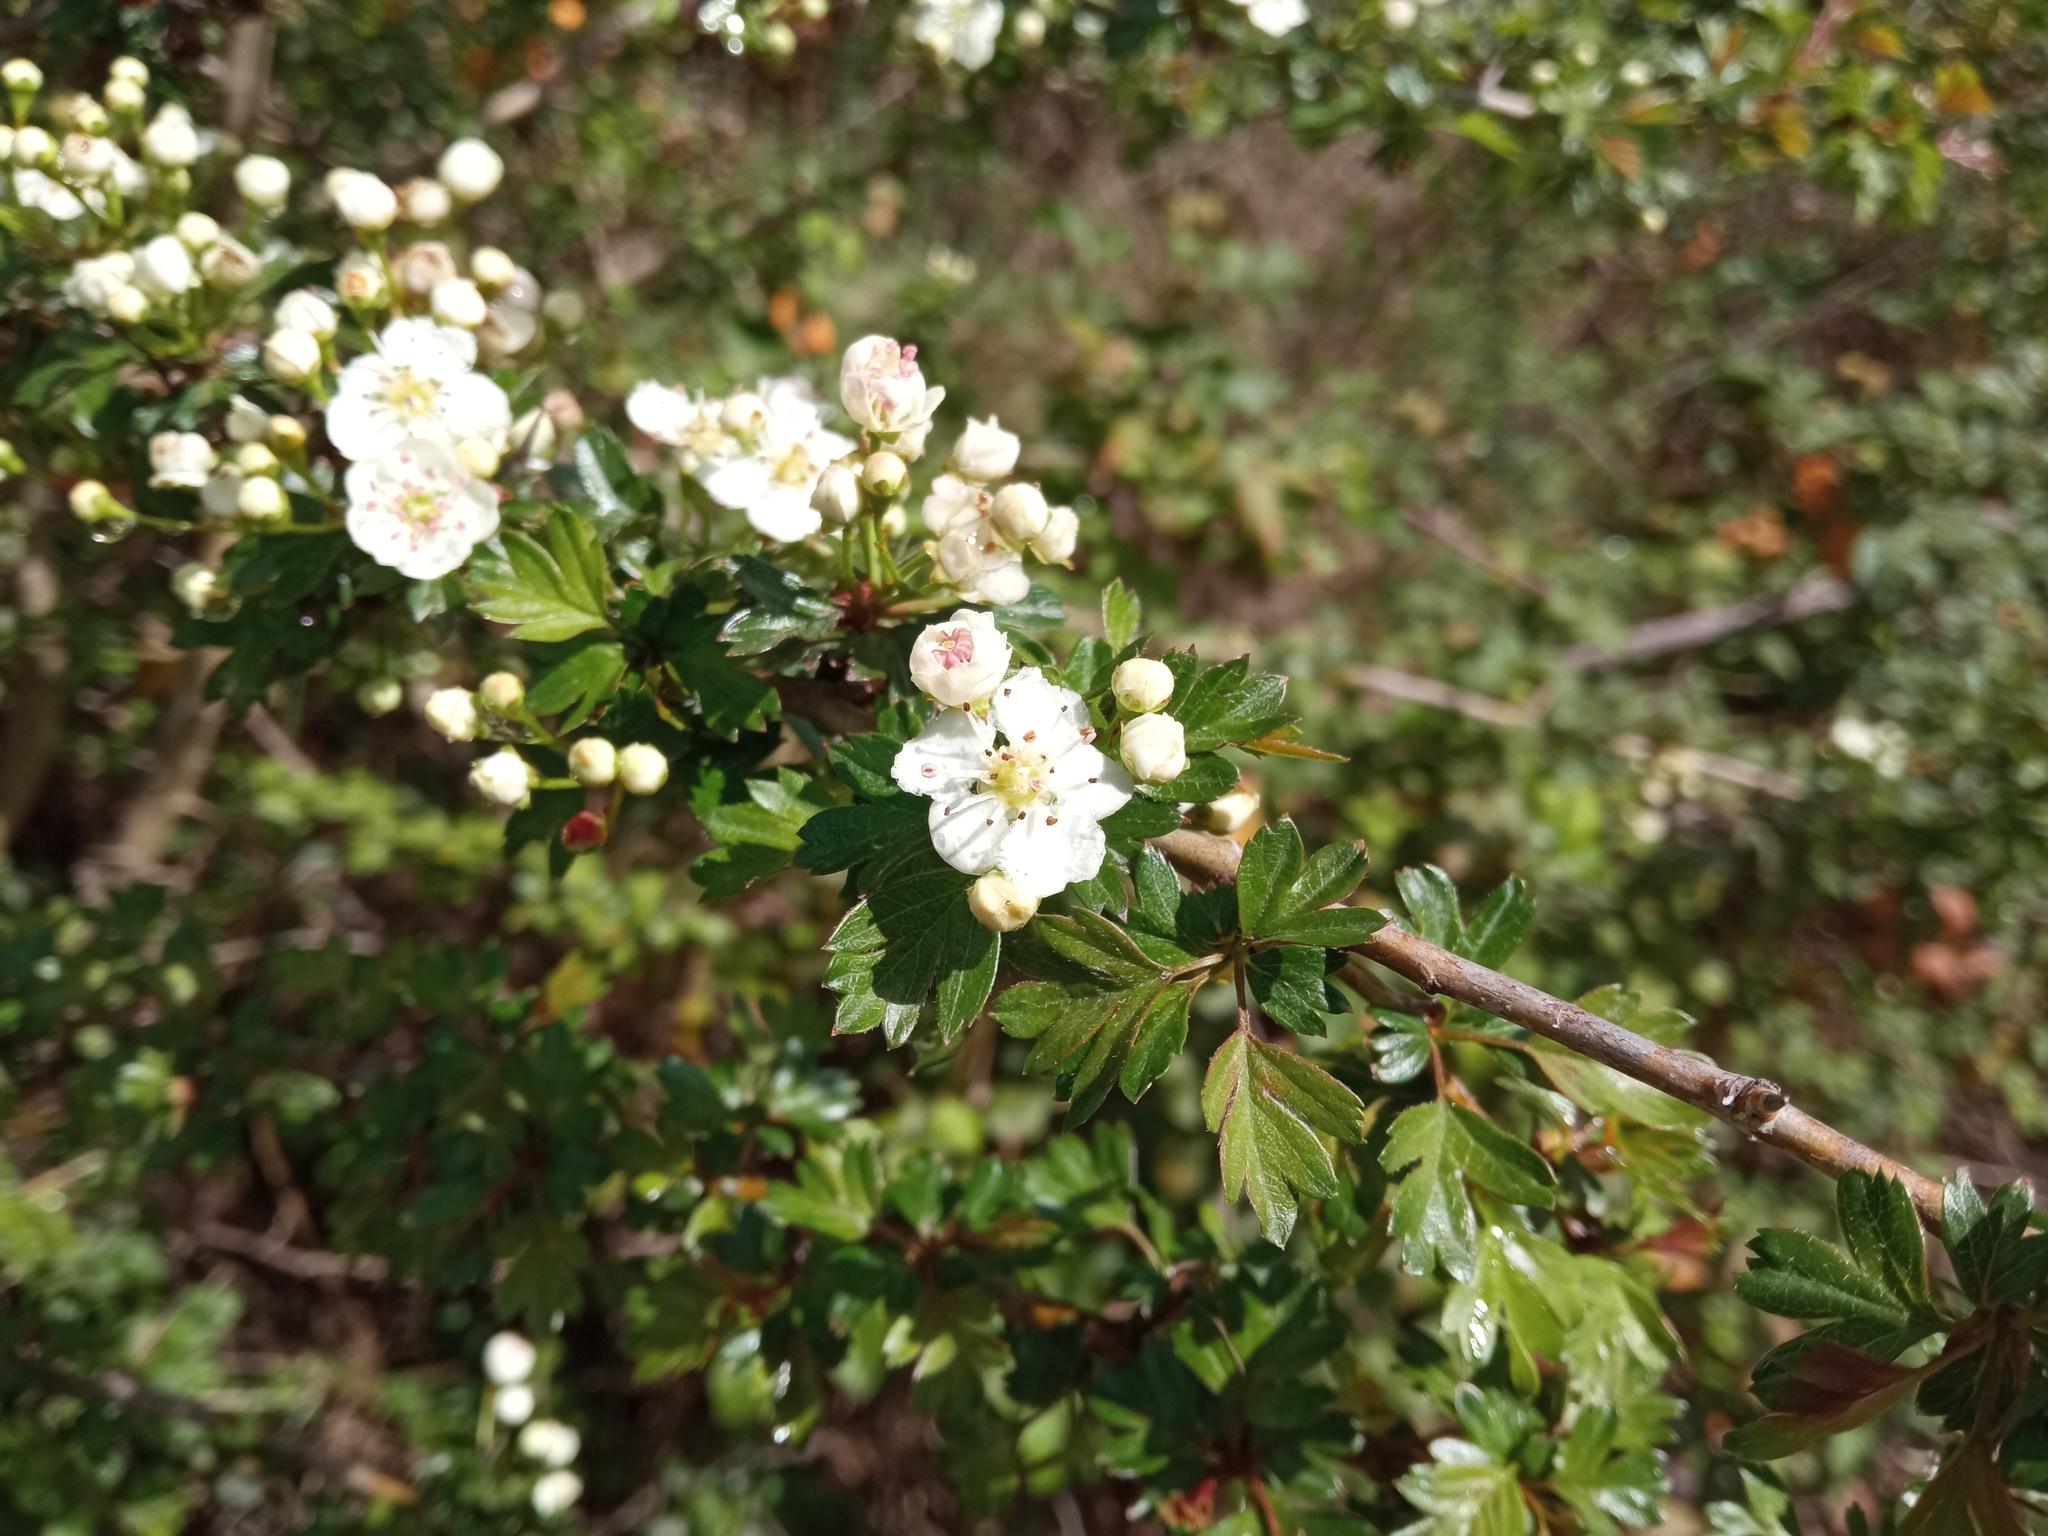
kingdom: Plantae
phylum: Tracheophyta
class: Magnoliopsida
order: Rosales
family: Rosaceae
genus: Crataegus
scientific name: Crataegus monogyna
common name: Hawthorn
